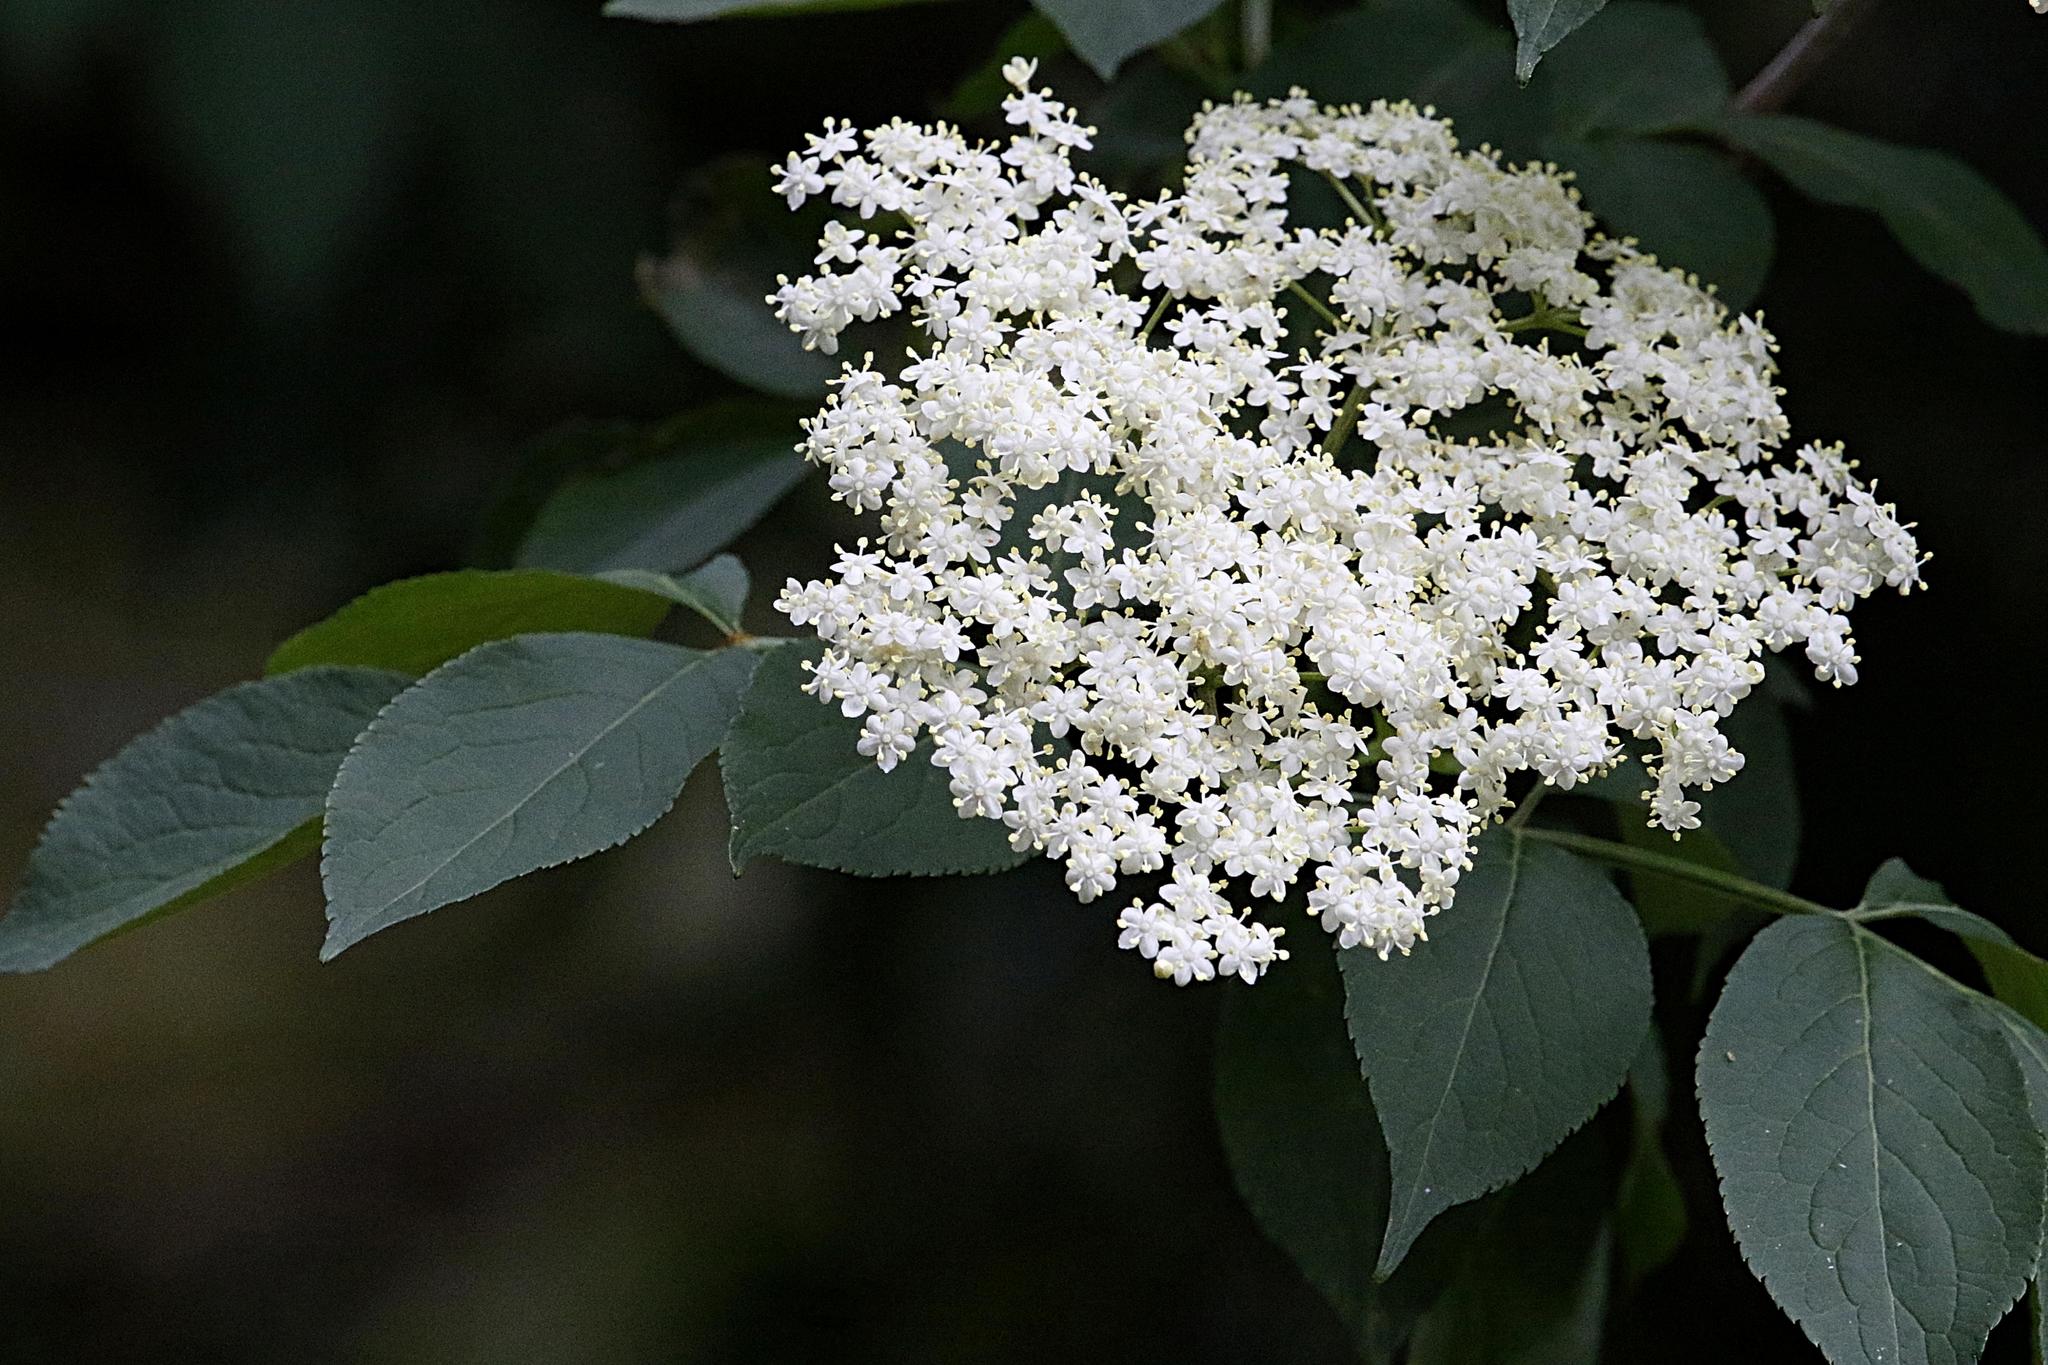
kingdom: Plantae
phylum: Tracheophyta
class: Magnoliopsida
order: Dipsacales
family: Viburnaceae
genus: Sambucus
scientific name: Sambucus nigra
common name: Elder
